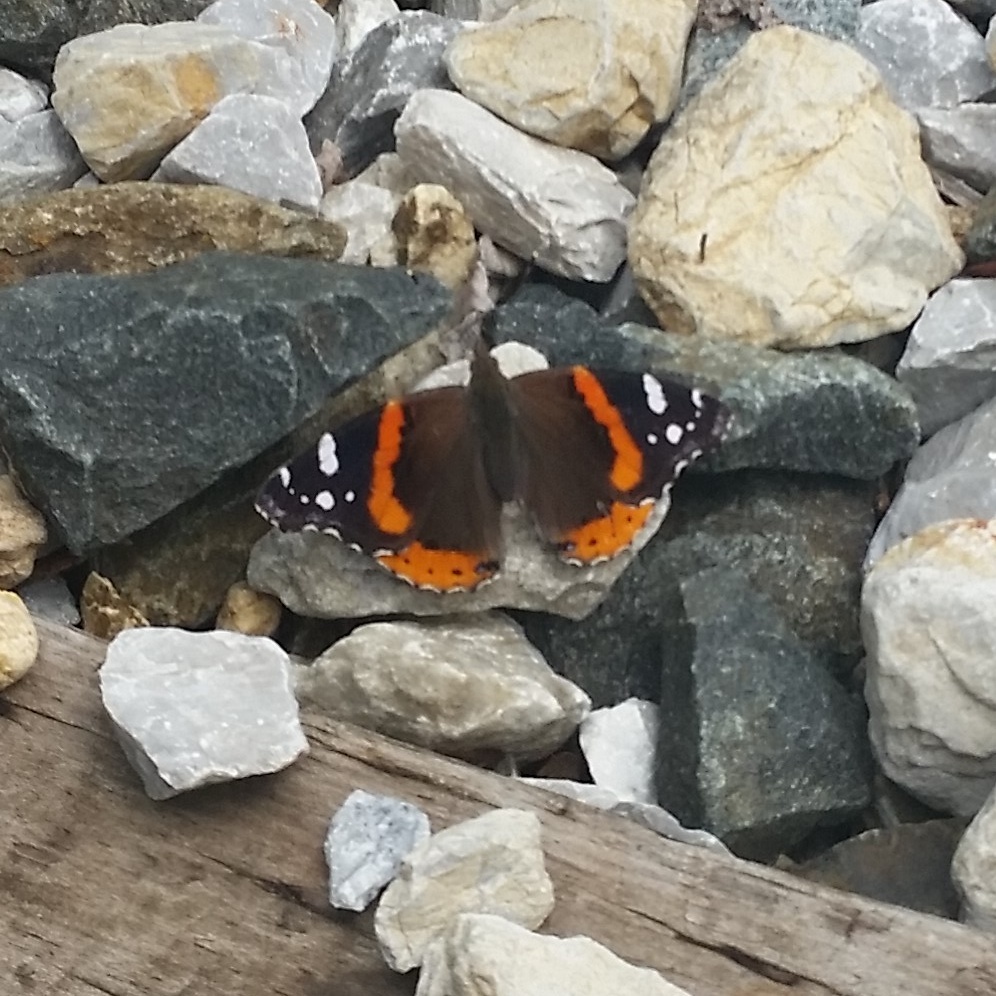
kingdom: Animalia
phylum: Arthropoda
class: Insecta
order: Lepidoptera
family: Nymphalidae
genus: Vanessa
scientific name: Vanessa atalanta
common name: Red admiral
